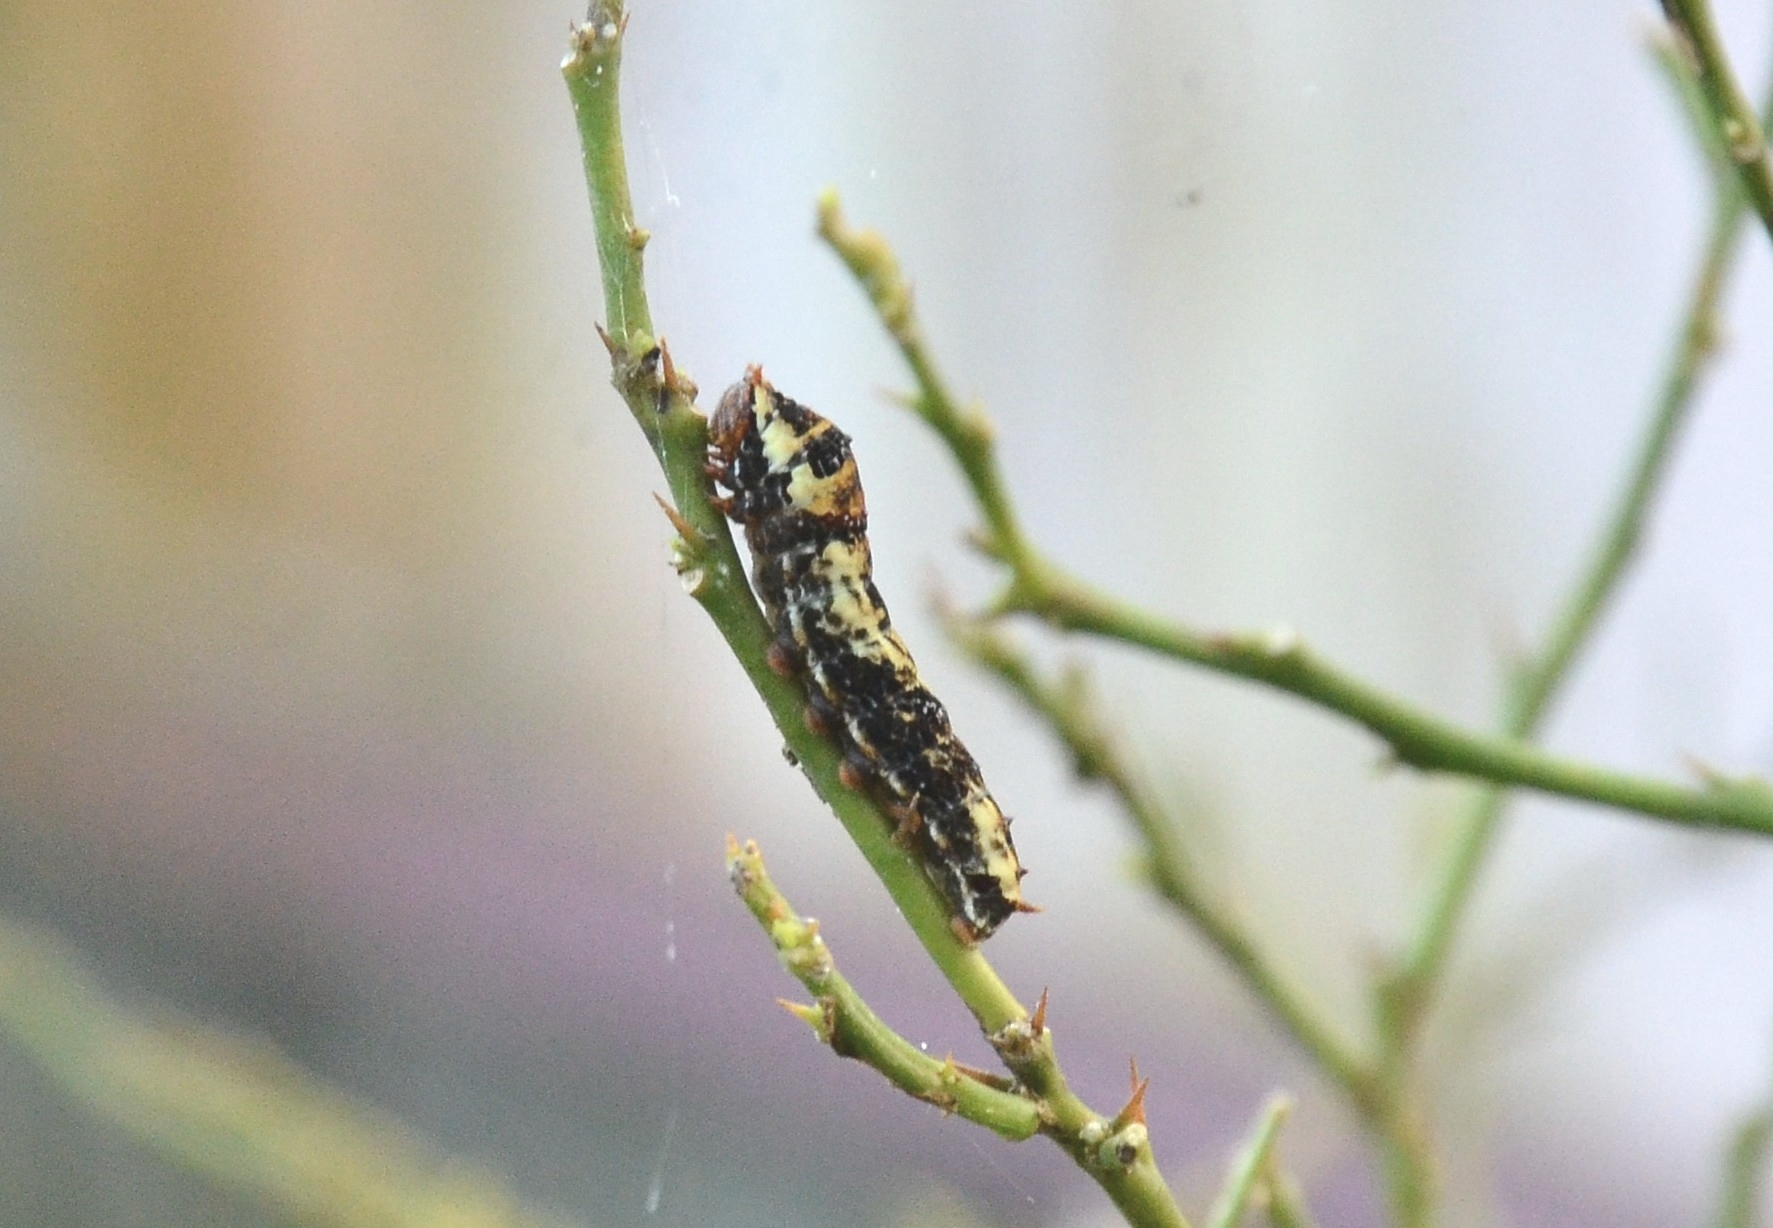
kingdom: Animalia
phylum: Arthropoda
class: Insecta
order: Lepidoptera
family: Papilionidae
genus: Papilio
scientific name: Papilio demoleus
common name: Lime butterfly
